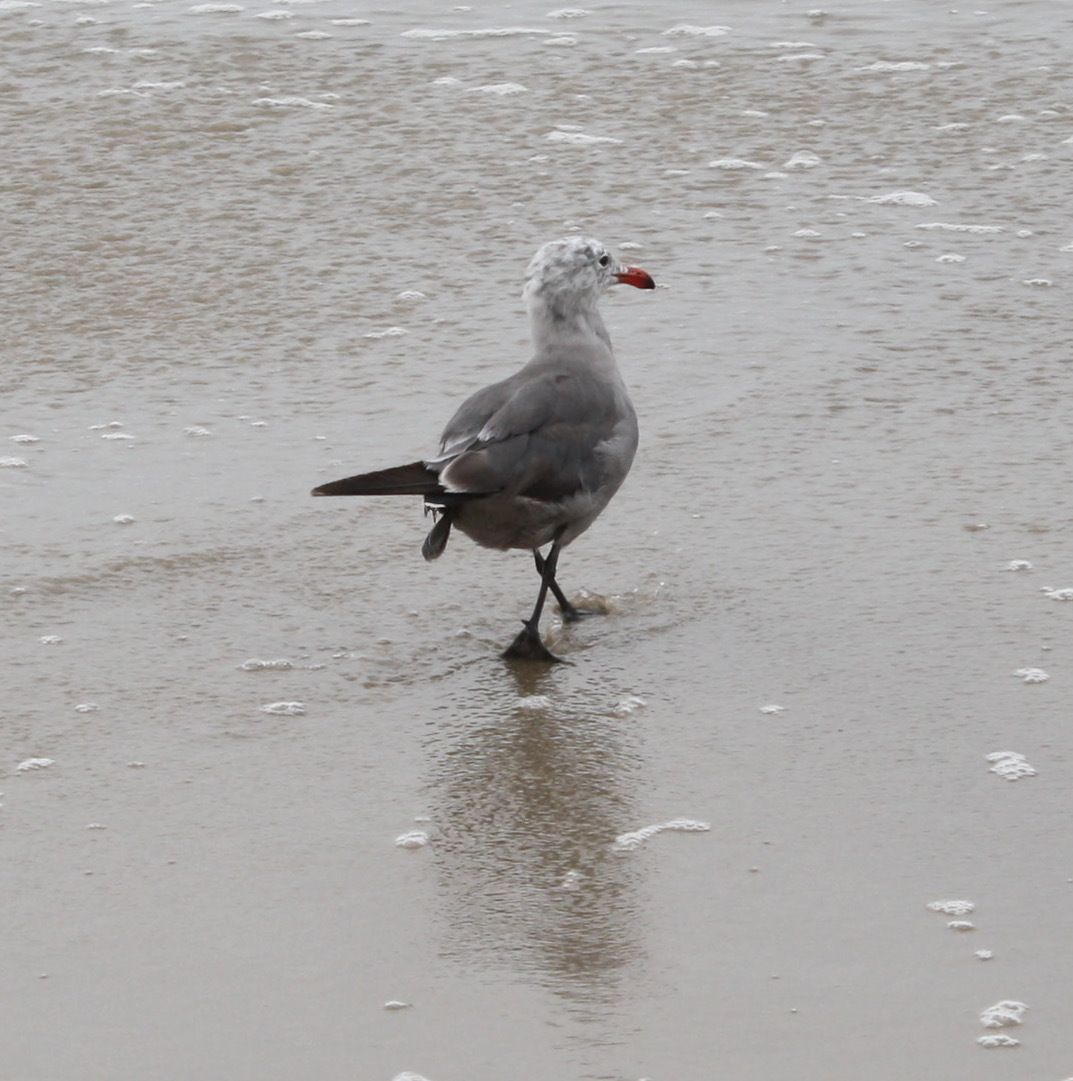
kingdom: Animalia
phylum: Chordata
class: Aves
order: Charadriiformes
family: Laridae
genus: Larus
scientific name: Larus heermanni
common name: Heermann's gull
